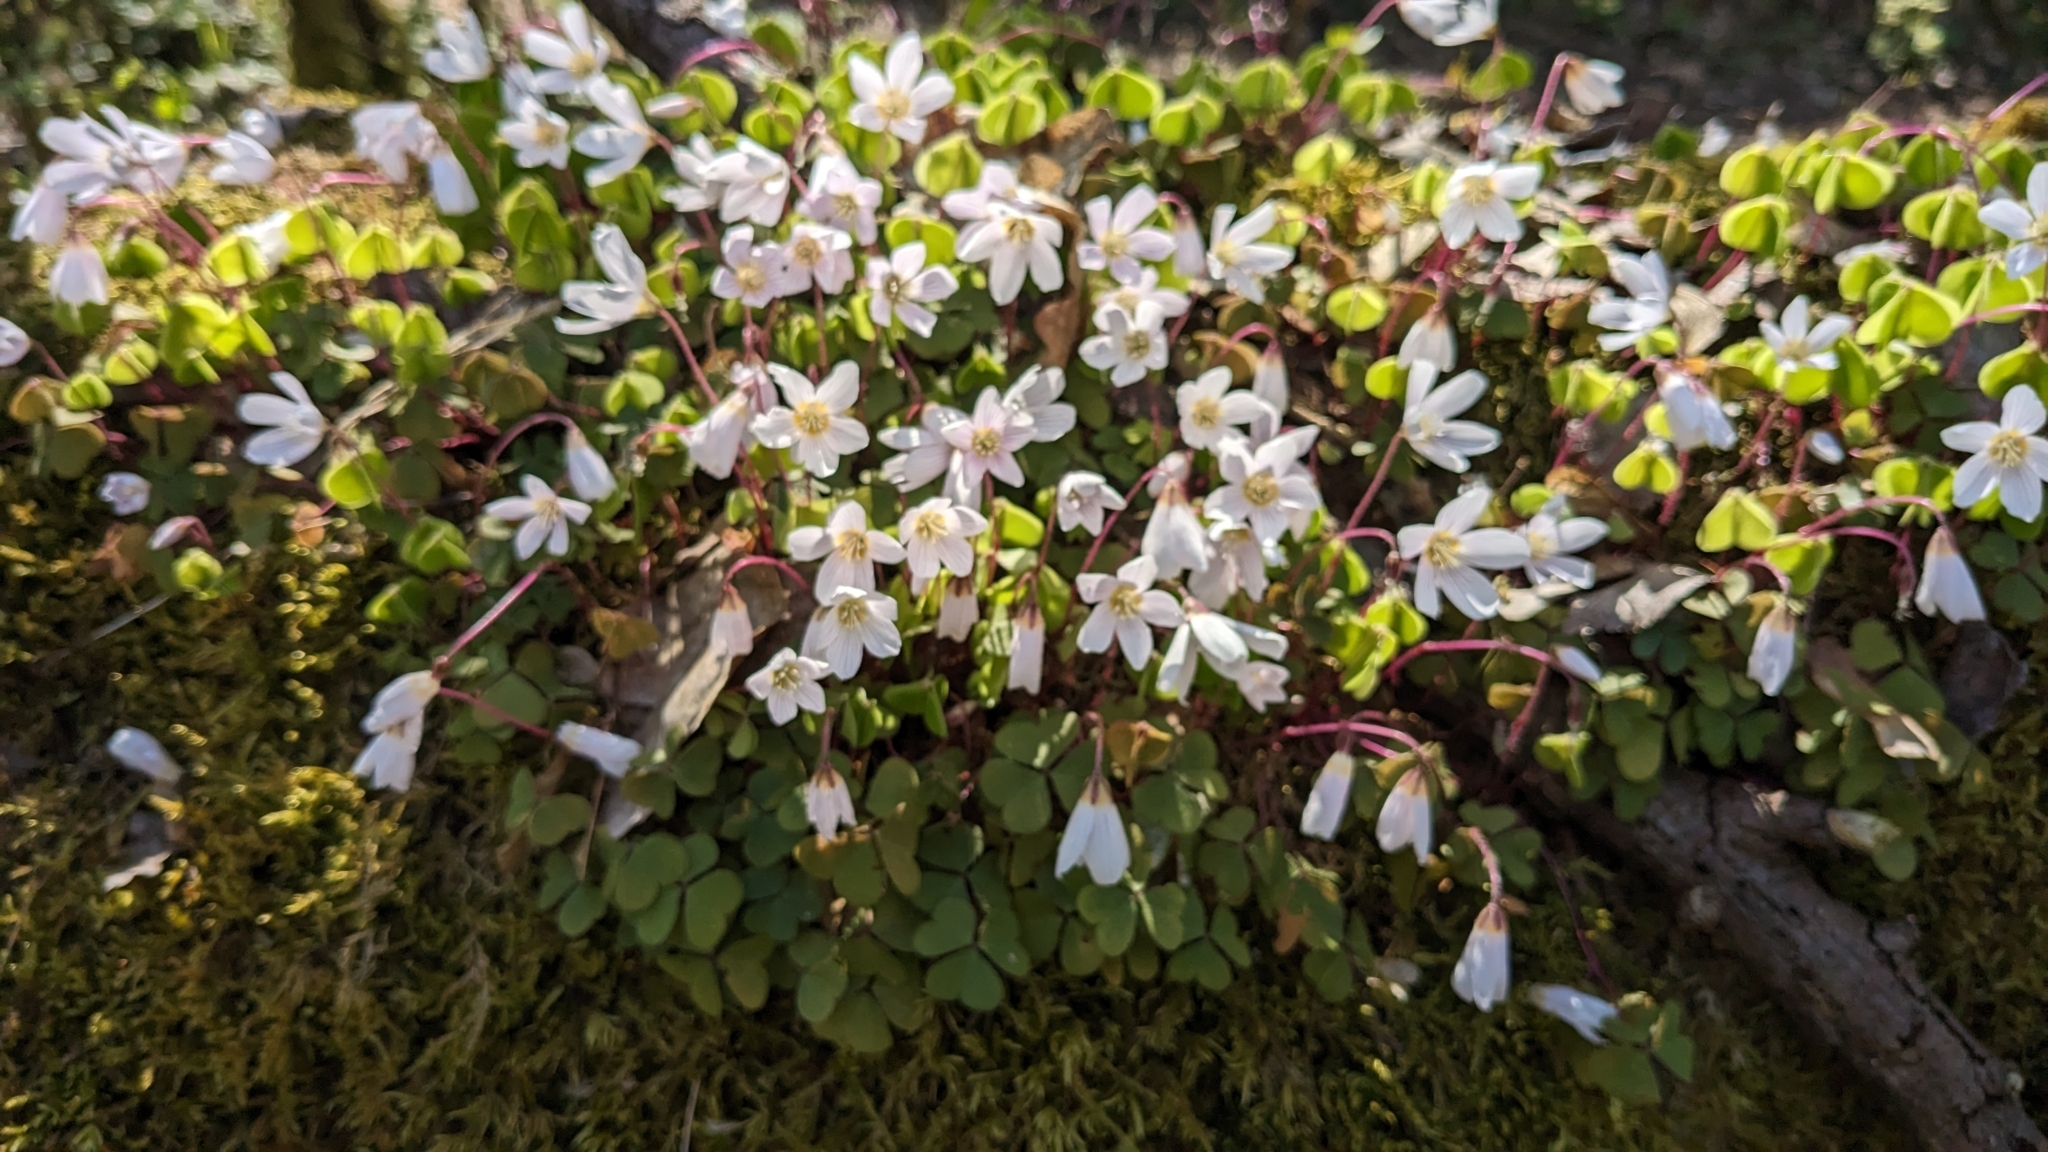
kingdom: Plantae
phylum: Tracheophyta
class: Magnoliopsida
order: Oxalidales
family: Oxalidaceae
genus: Oxalis
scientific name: Oxalis acetosella
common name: Wood-sorrel
